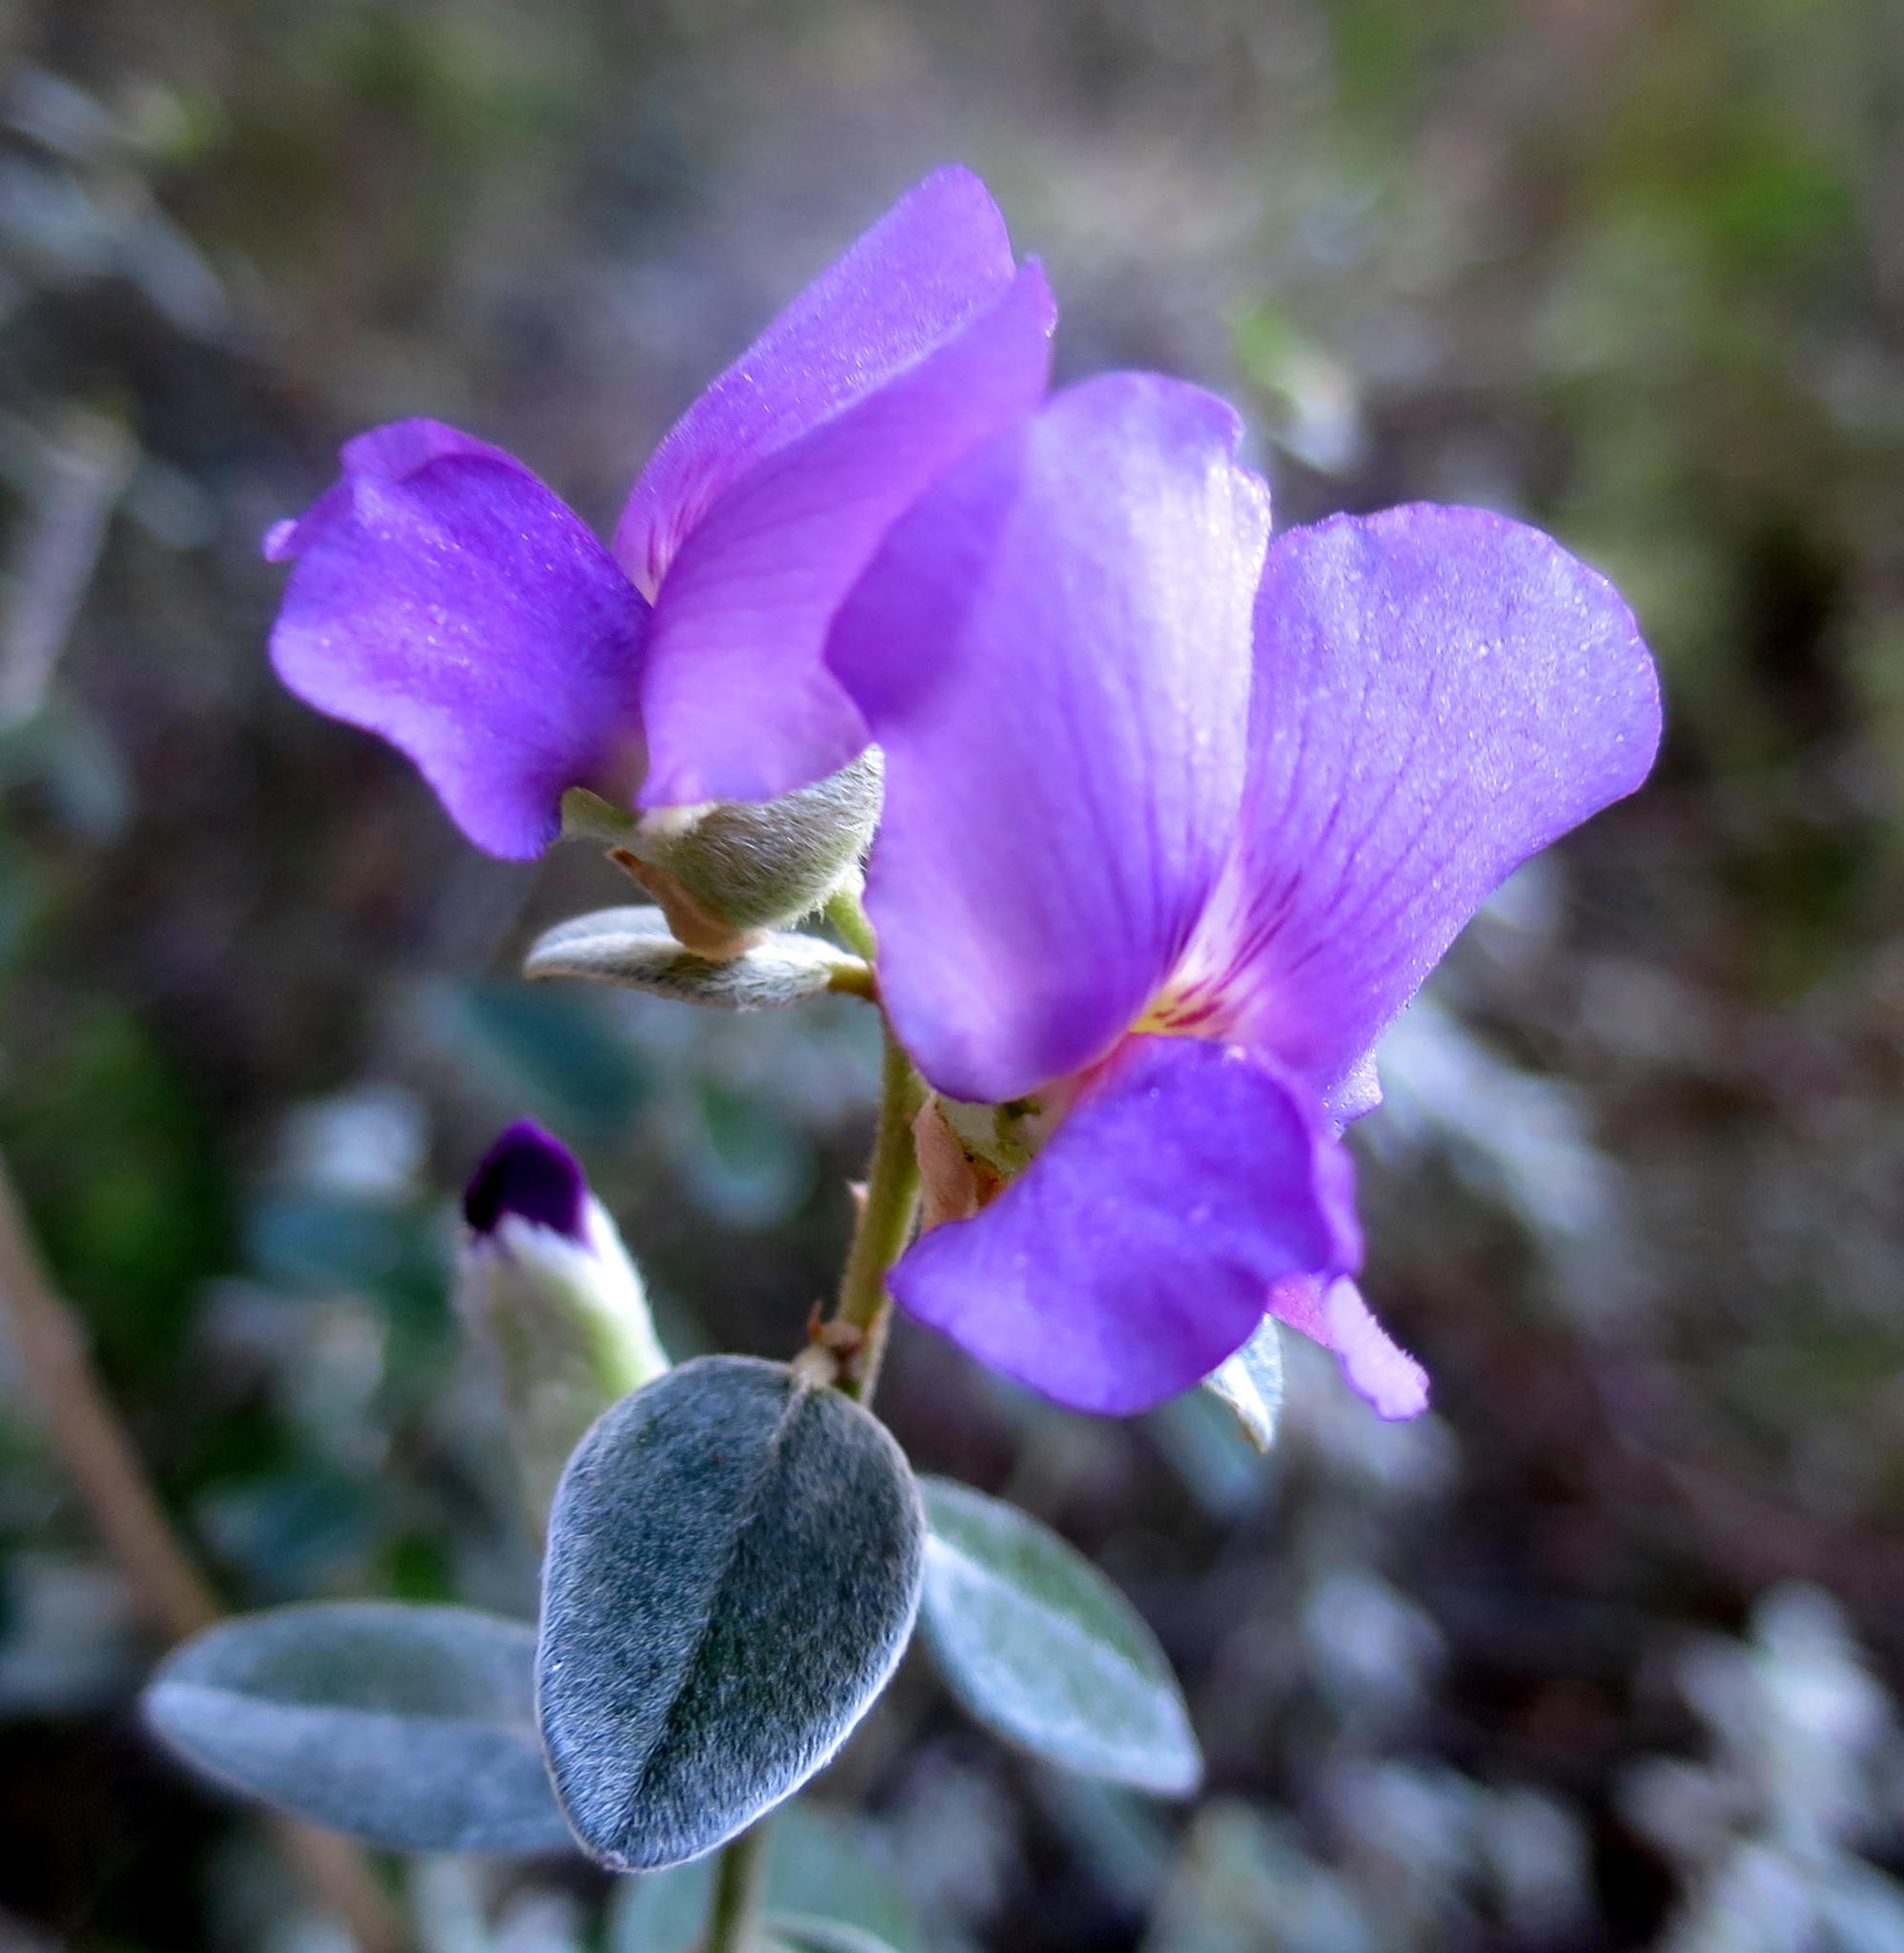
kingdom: Plantae
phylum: Tracheophyta
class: Magnoliopsida
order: Fabales
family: Fabaceae
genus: Podalyria
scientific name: Podalyria burchellii
